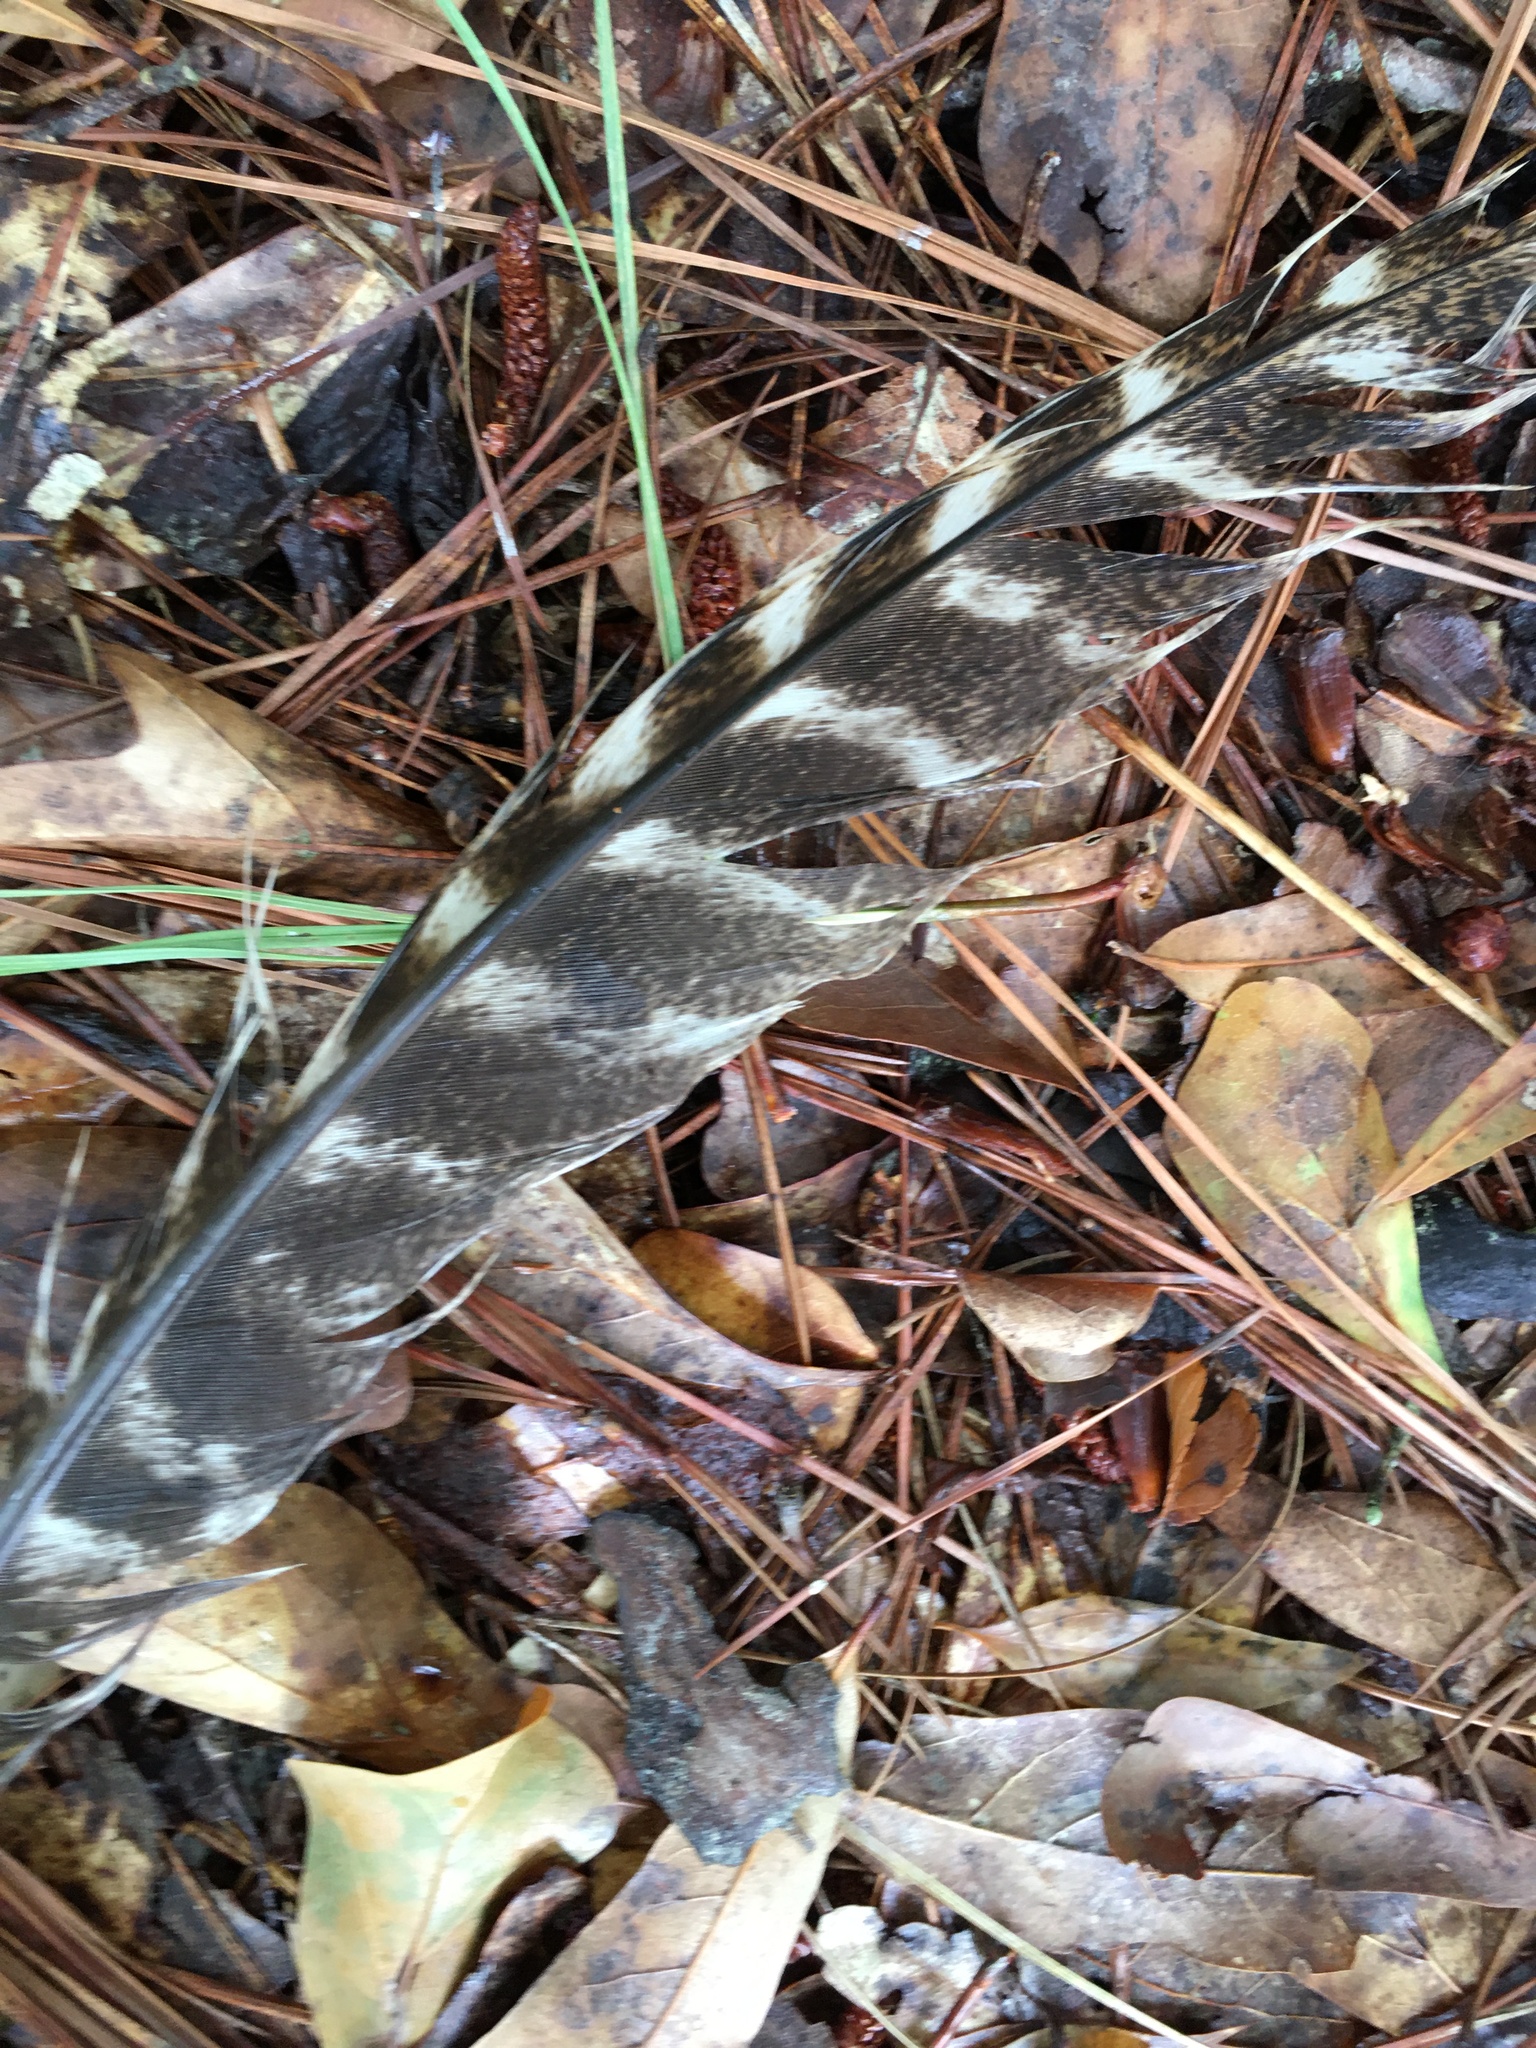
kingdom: Animalia
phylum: Chordata
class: Aves
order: Galliformes
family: Phasianidae
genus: Meleagris
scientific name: Meleagris gallopavo
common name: Wild turkey
